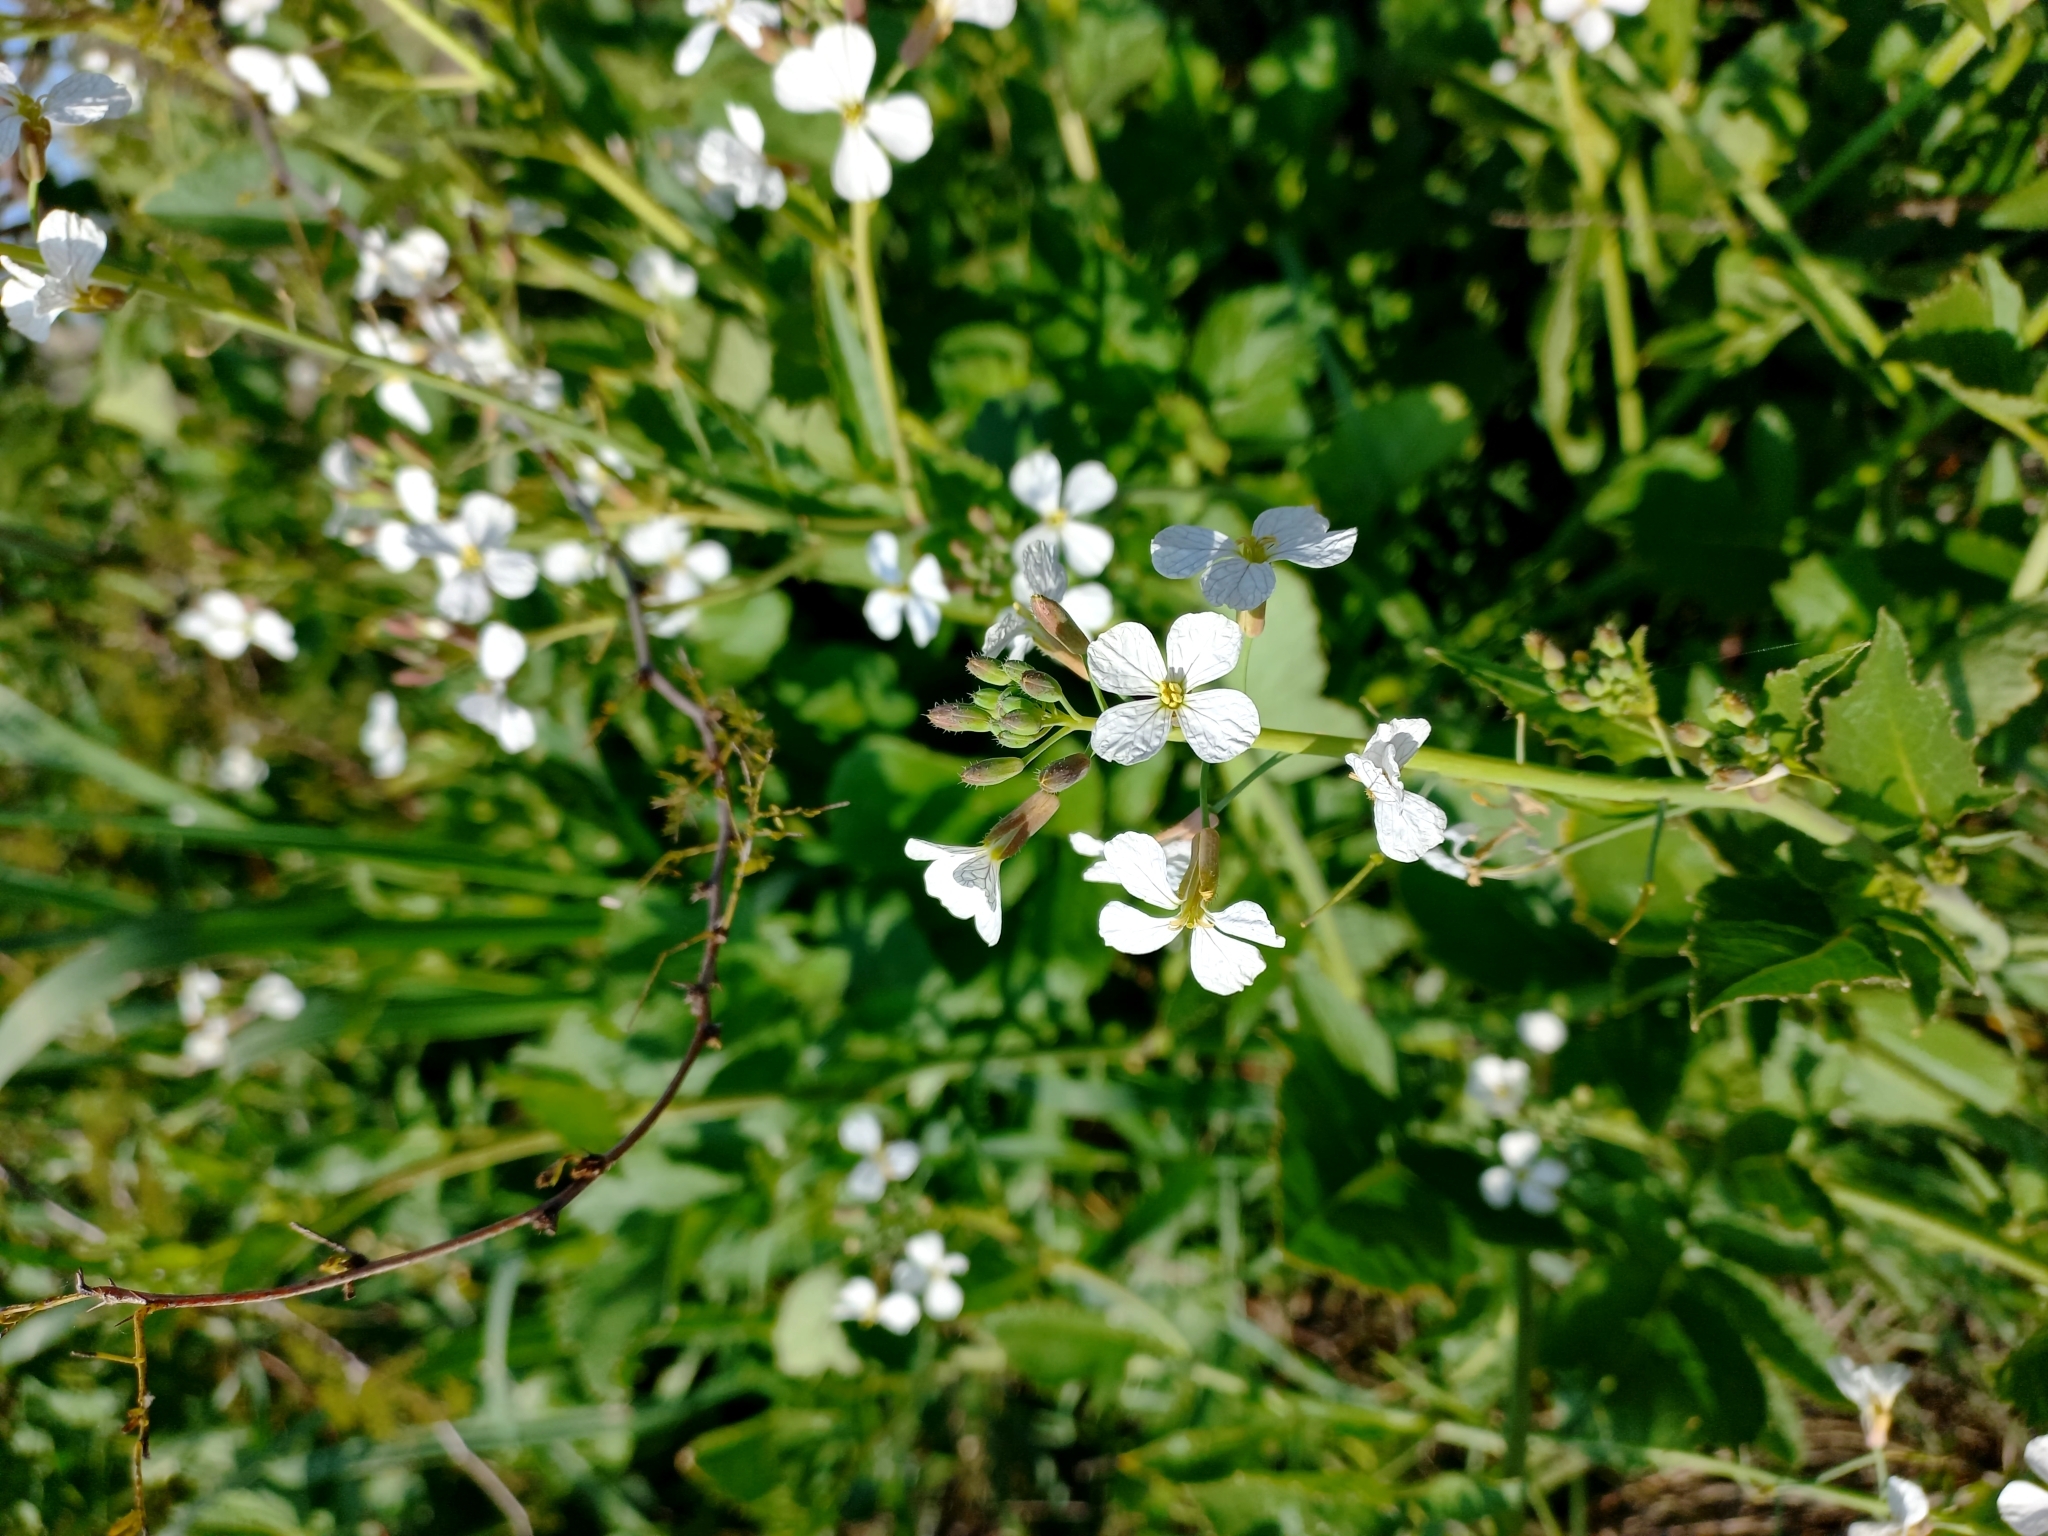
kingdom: Plantae
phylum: Tracheophyta
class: Magnoliopsida
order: Brassicales
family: Brassicaceae
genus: Raphanus
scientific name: Raphanus raphanistrum
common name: Wild radish
